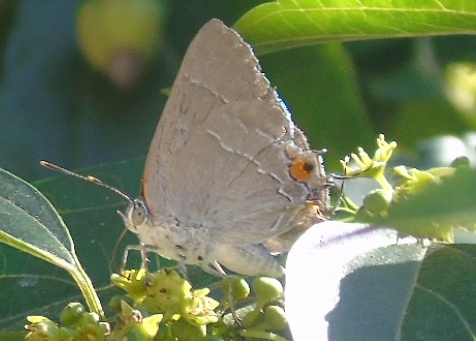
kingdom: Animalia
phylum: Arthropoda
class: Insecta
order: Lepidoptera
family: Lycaenidae
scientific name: Lycaenidae
